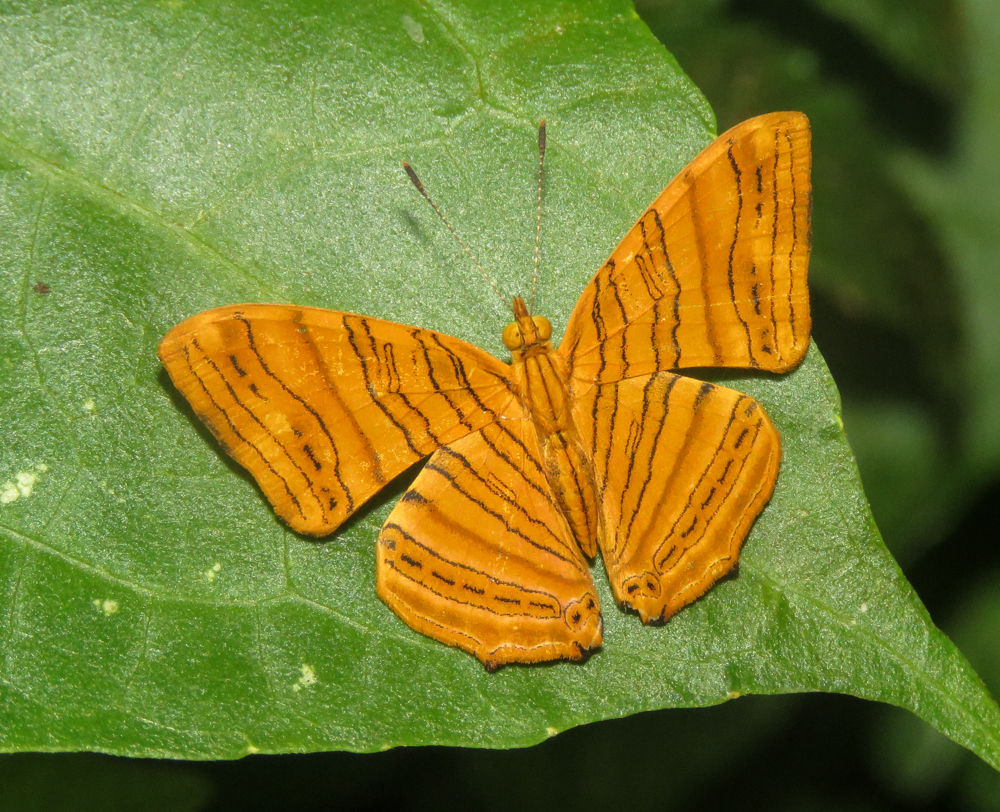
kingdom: Animalia
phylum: Arthropoda
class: Insecta
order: Lepidoptera
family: Nymphalidae
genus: Chersonesia
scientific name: Chersonesia rahria
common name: Wavy maplet
